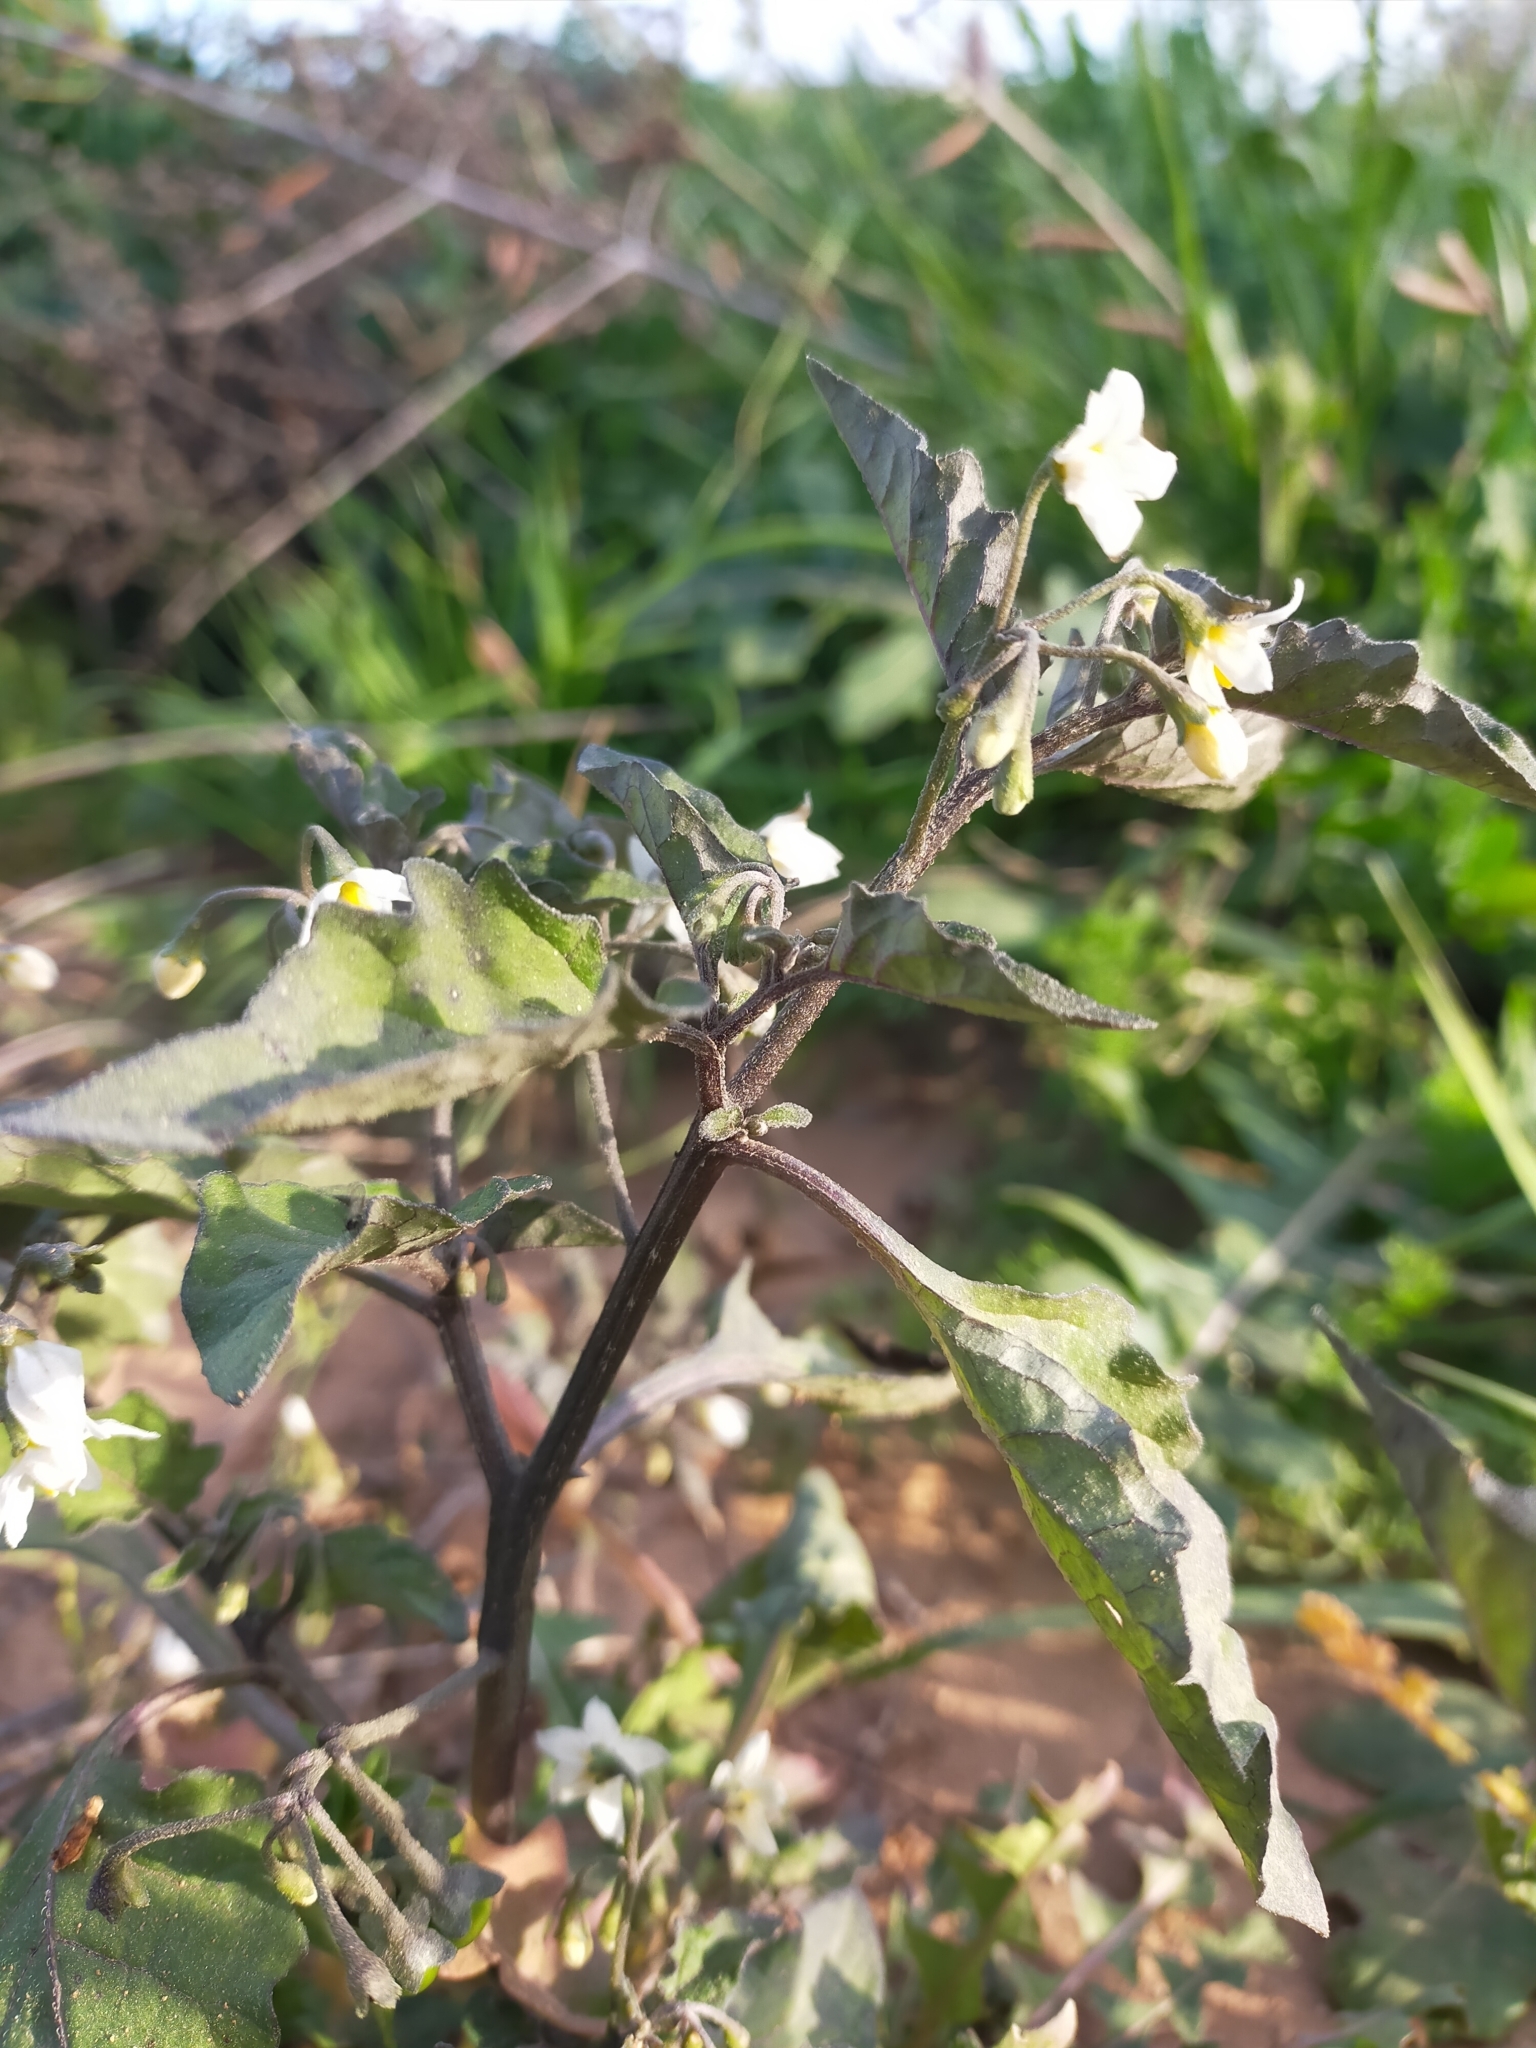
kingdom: Plantae
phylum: Tracheophyta
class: Magnoliopsida
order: Solanales
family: Solanaceae
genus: Solanum
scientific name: Solanum nigrum
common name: Black nightshade
